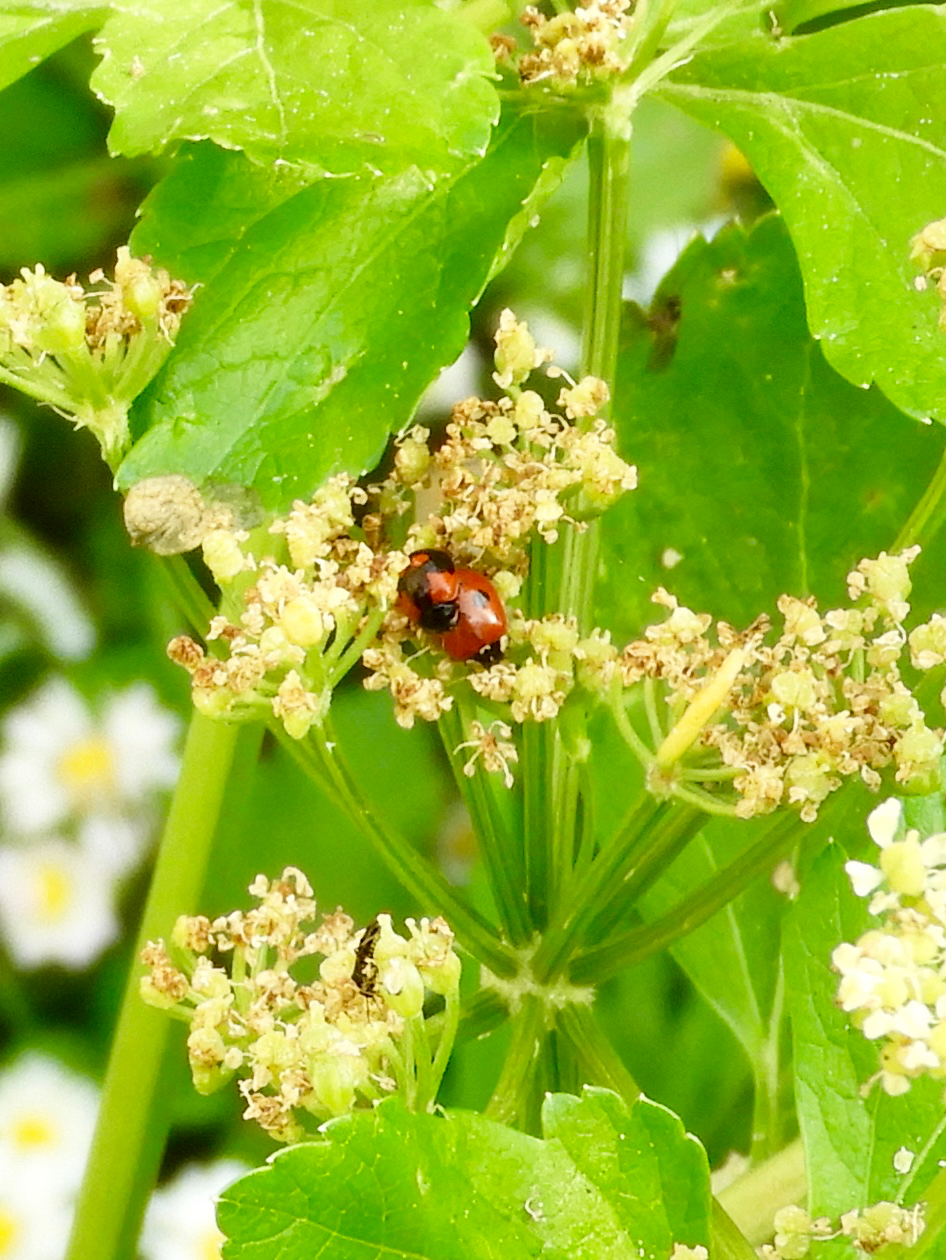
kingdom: Animalia
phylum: Arthropoda
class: Insecta
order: Coleoptera
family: Coccinellidae
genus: Adalia
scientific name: Adalia bipunctata
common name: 2-spot ladybird
